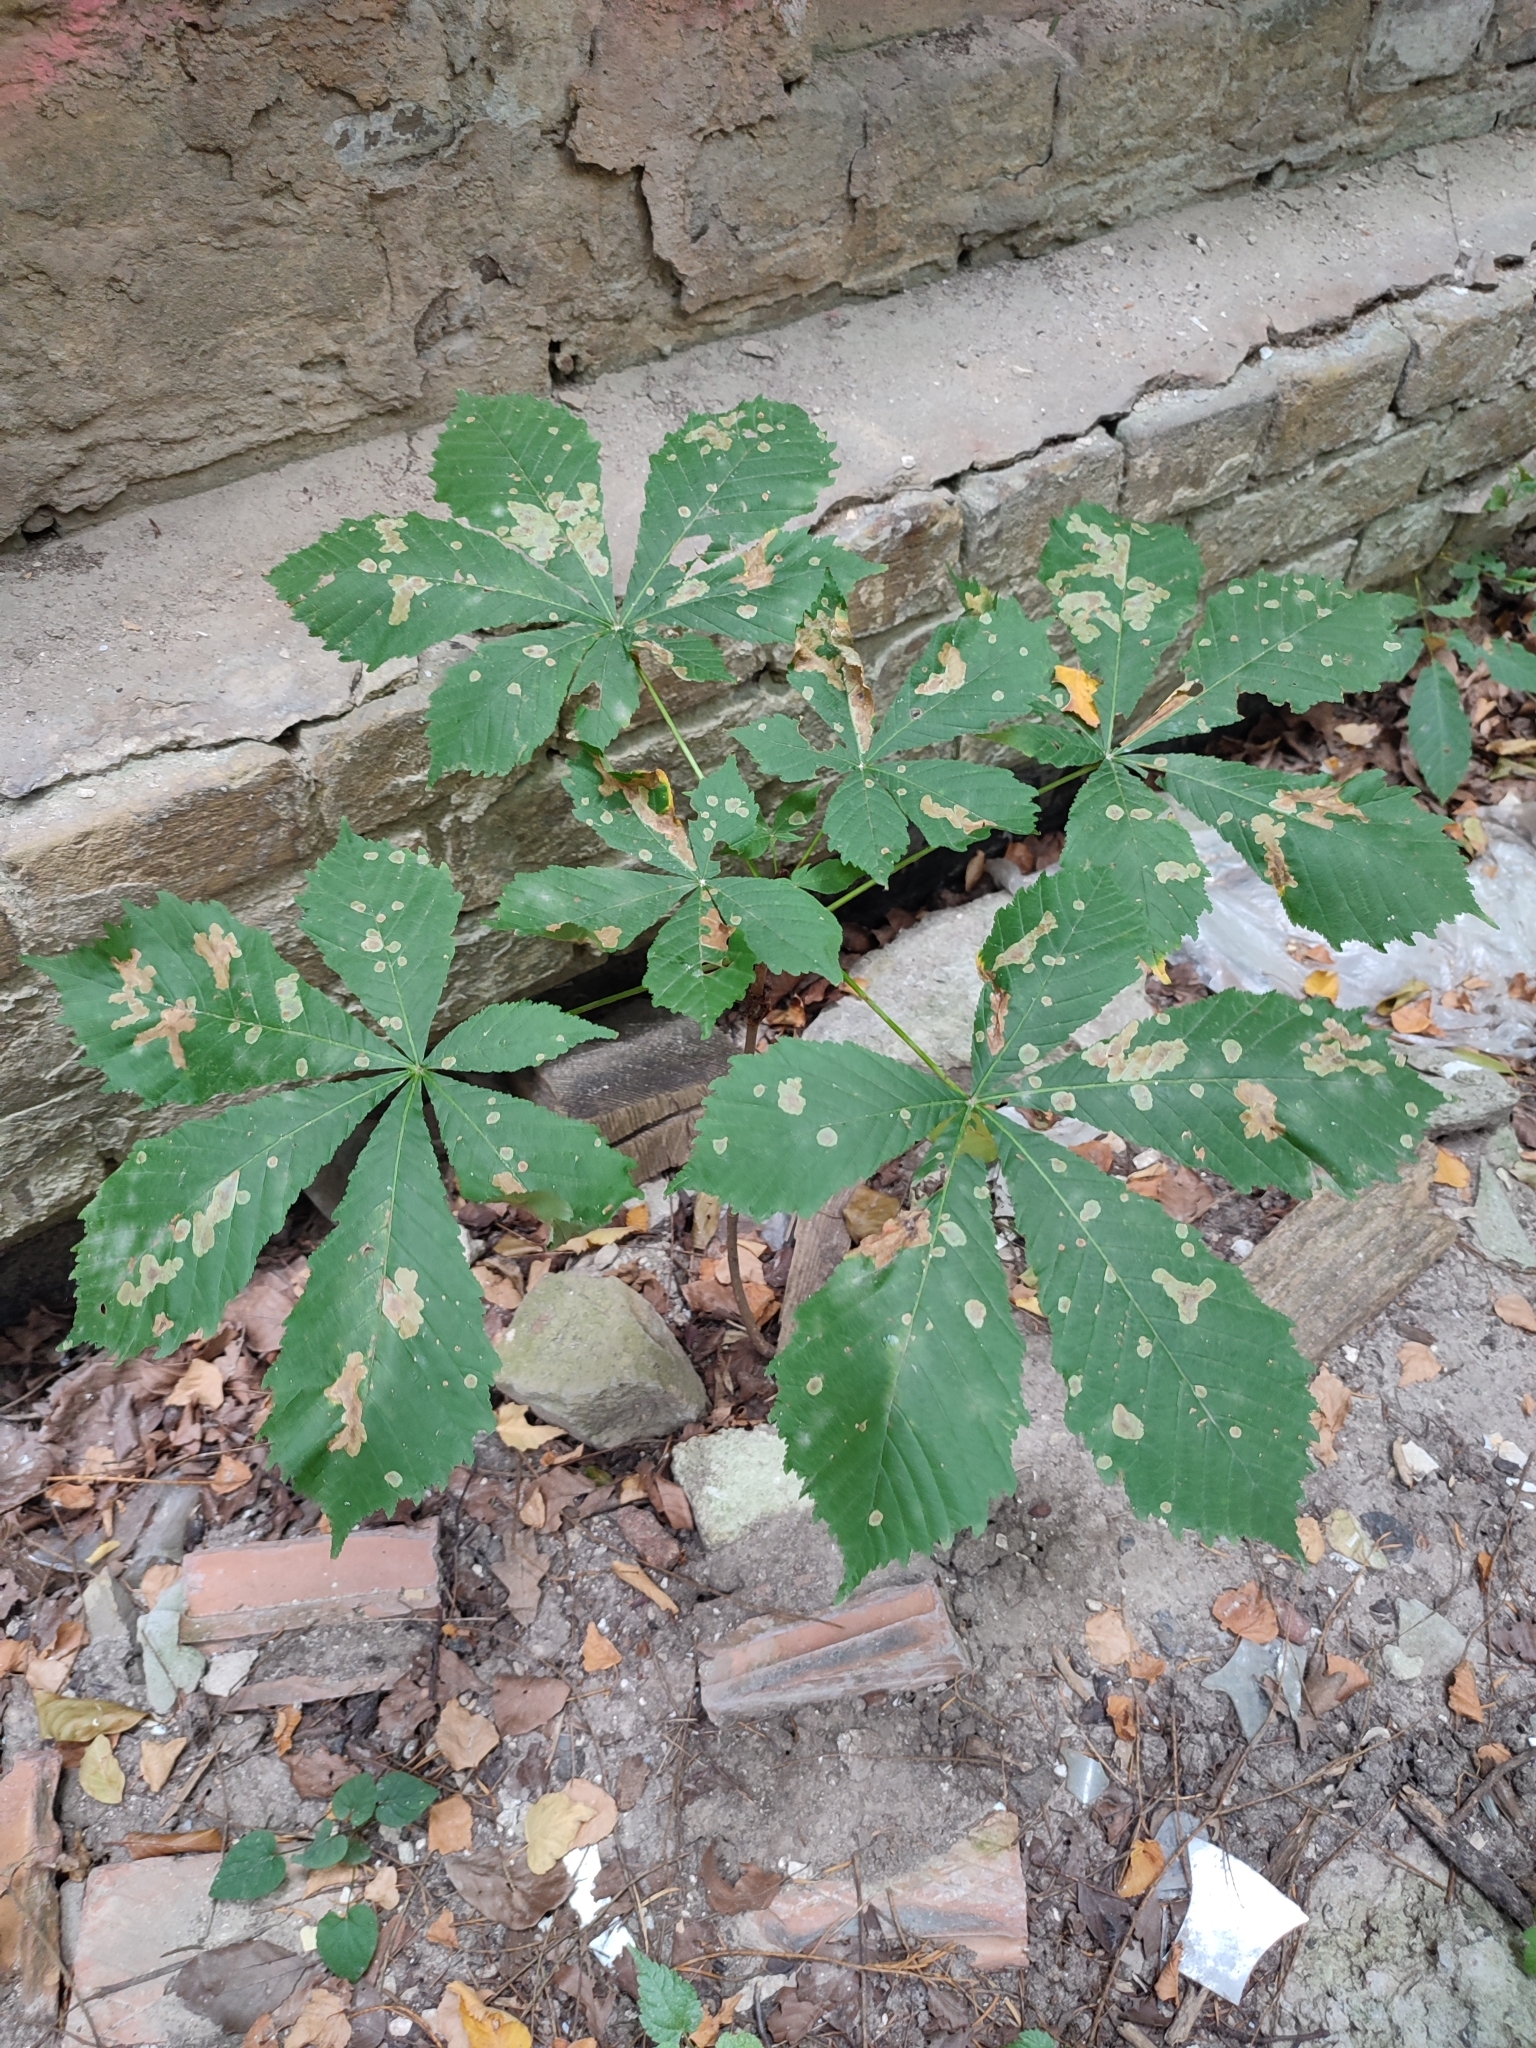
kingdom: Animalia
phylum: Arthropoda
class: Insecta
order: Lepidoptera
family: Gracillariidae
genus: Cameraria
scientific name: Cameraria ohridella
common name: Horse-chestnut leaf-miner
